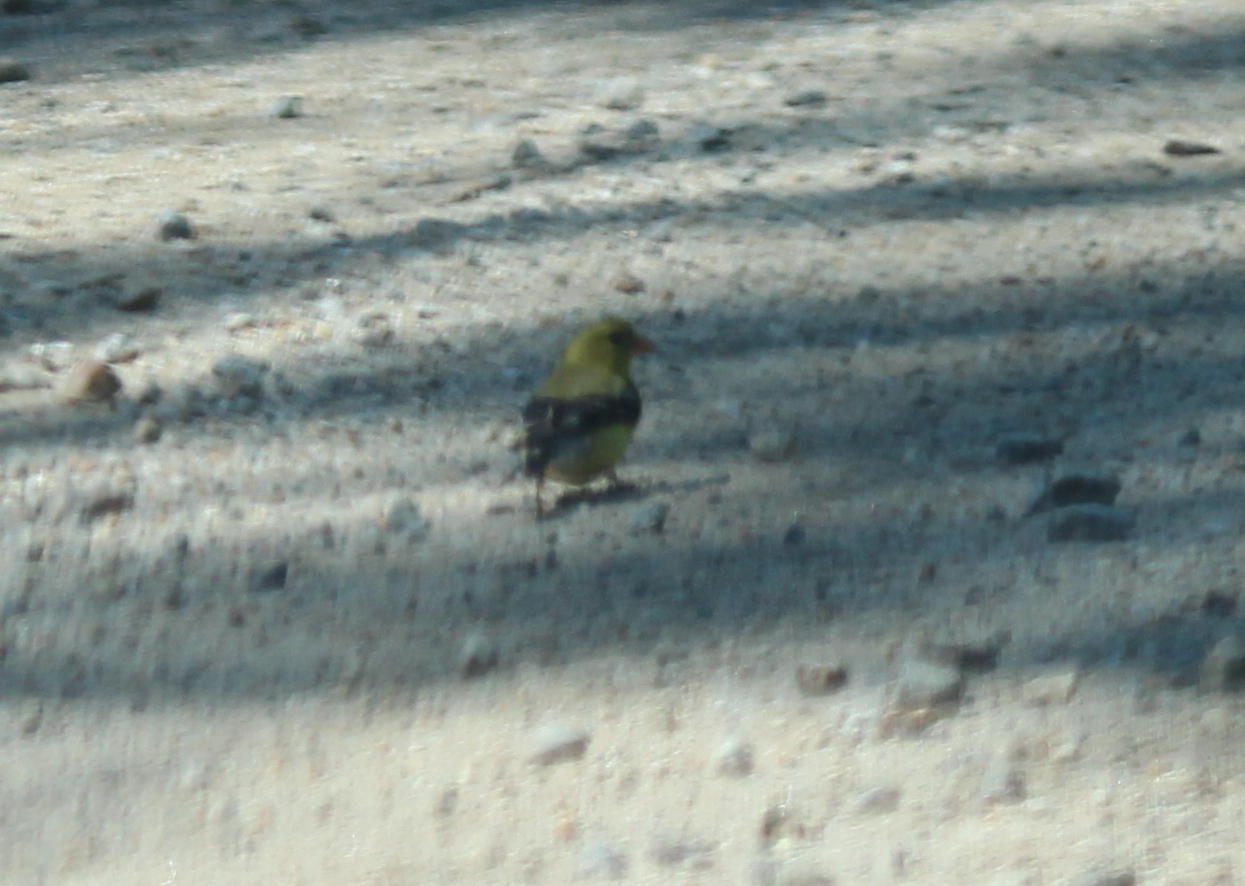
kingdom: Animalia
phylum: Chordata
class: Aves
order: Passeriformes
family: Fringillidae
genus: Spinus
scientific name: Spinus tristis
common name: American goldfinch
